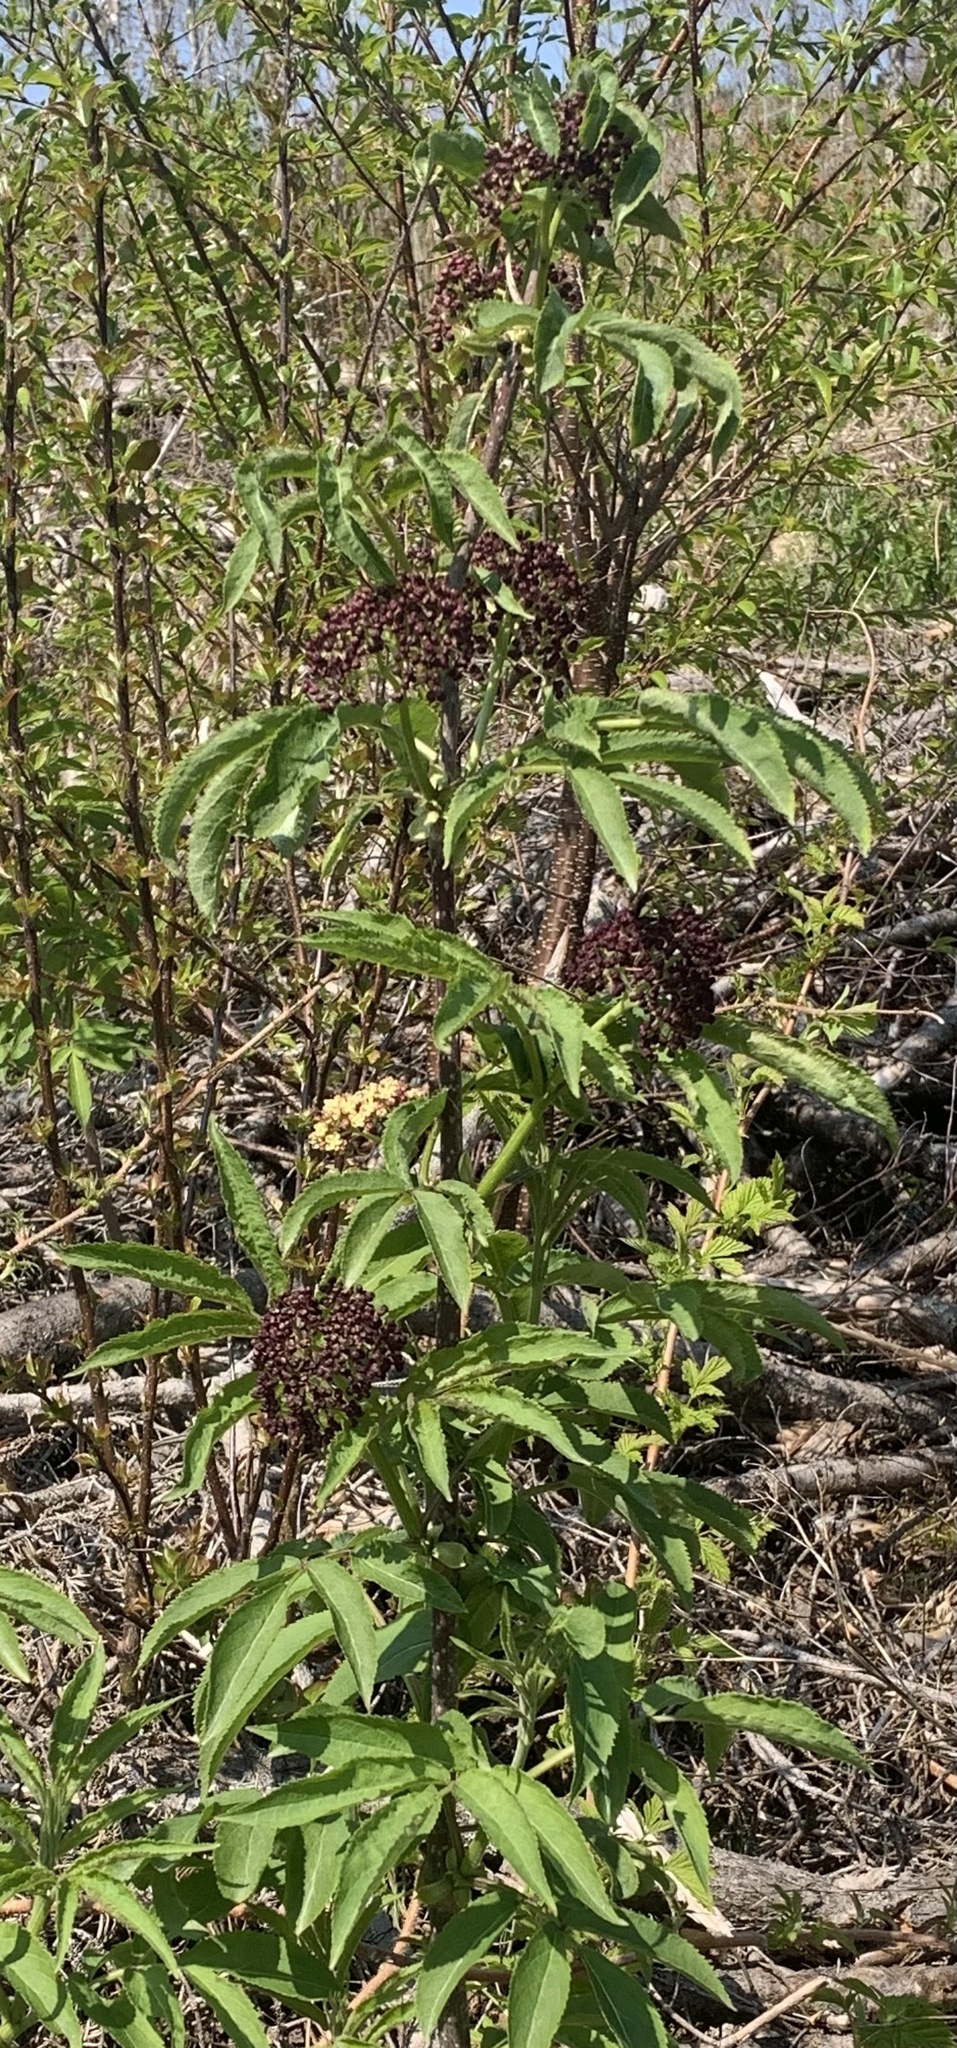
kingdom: Plantae
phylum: Tracheophyta
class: Magnoliopsida
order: Dipsacales
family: Viburnaceae
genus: Sambucus
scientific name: Sambucus racemosa
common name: Red-berried elder
